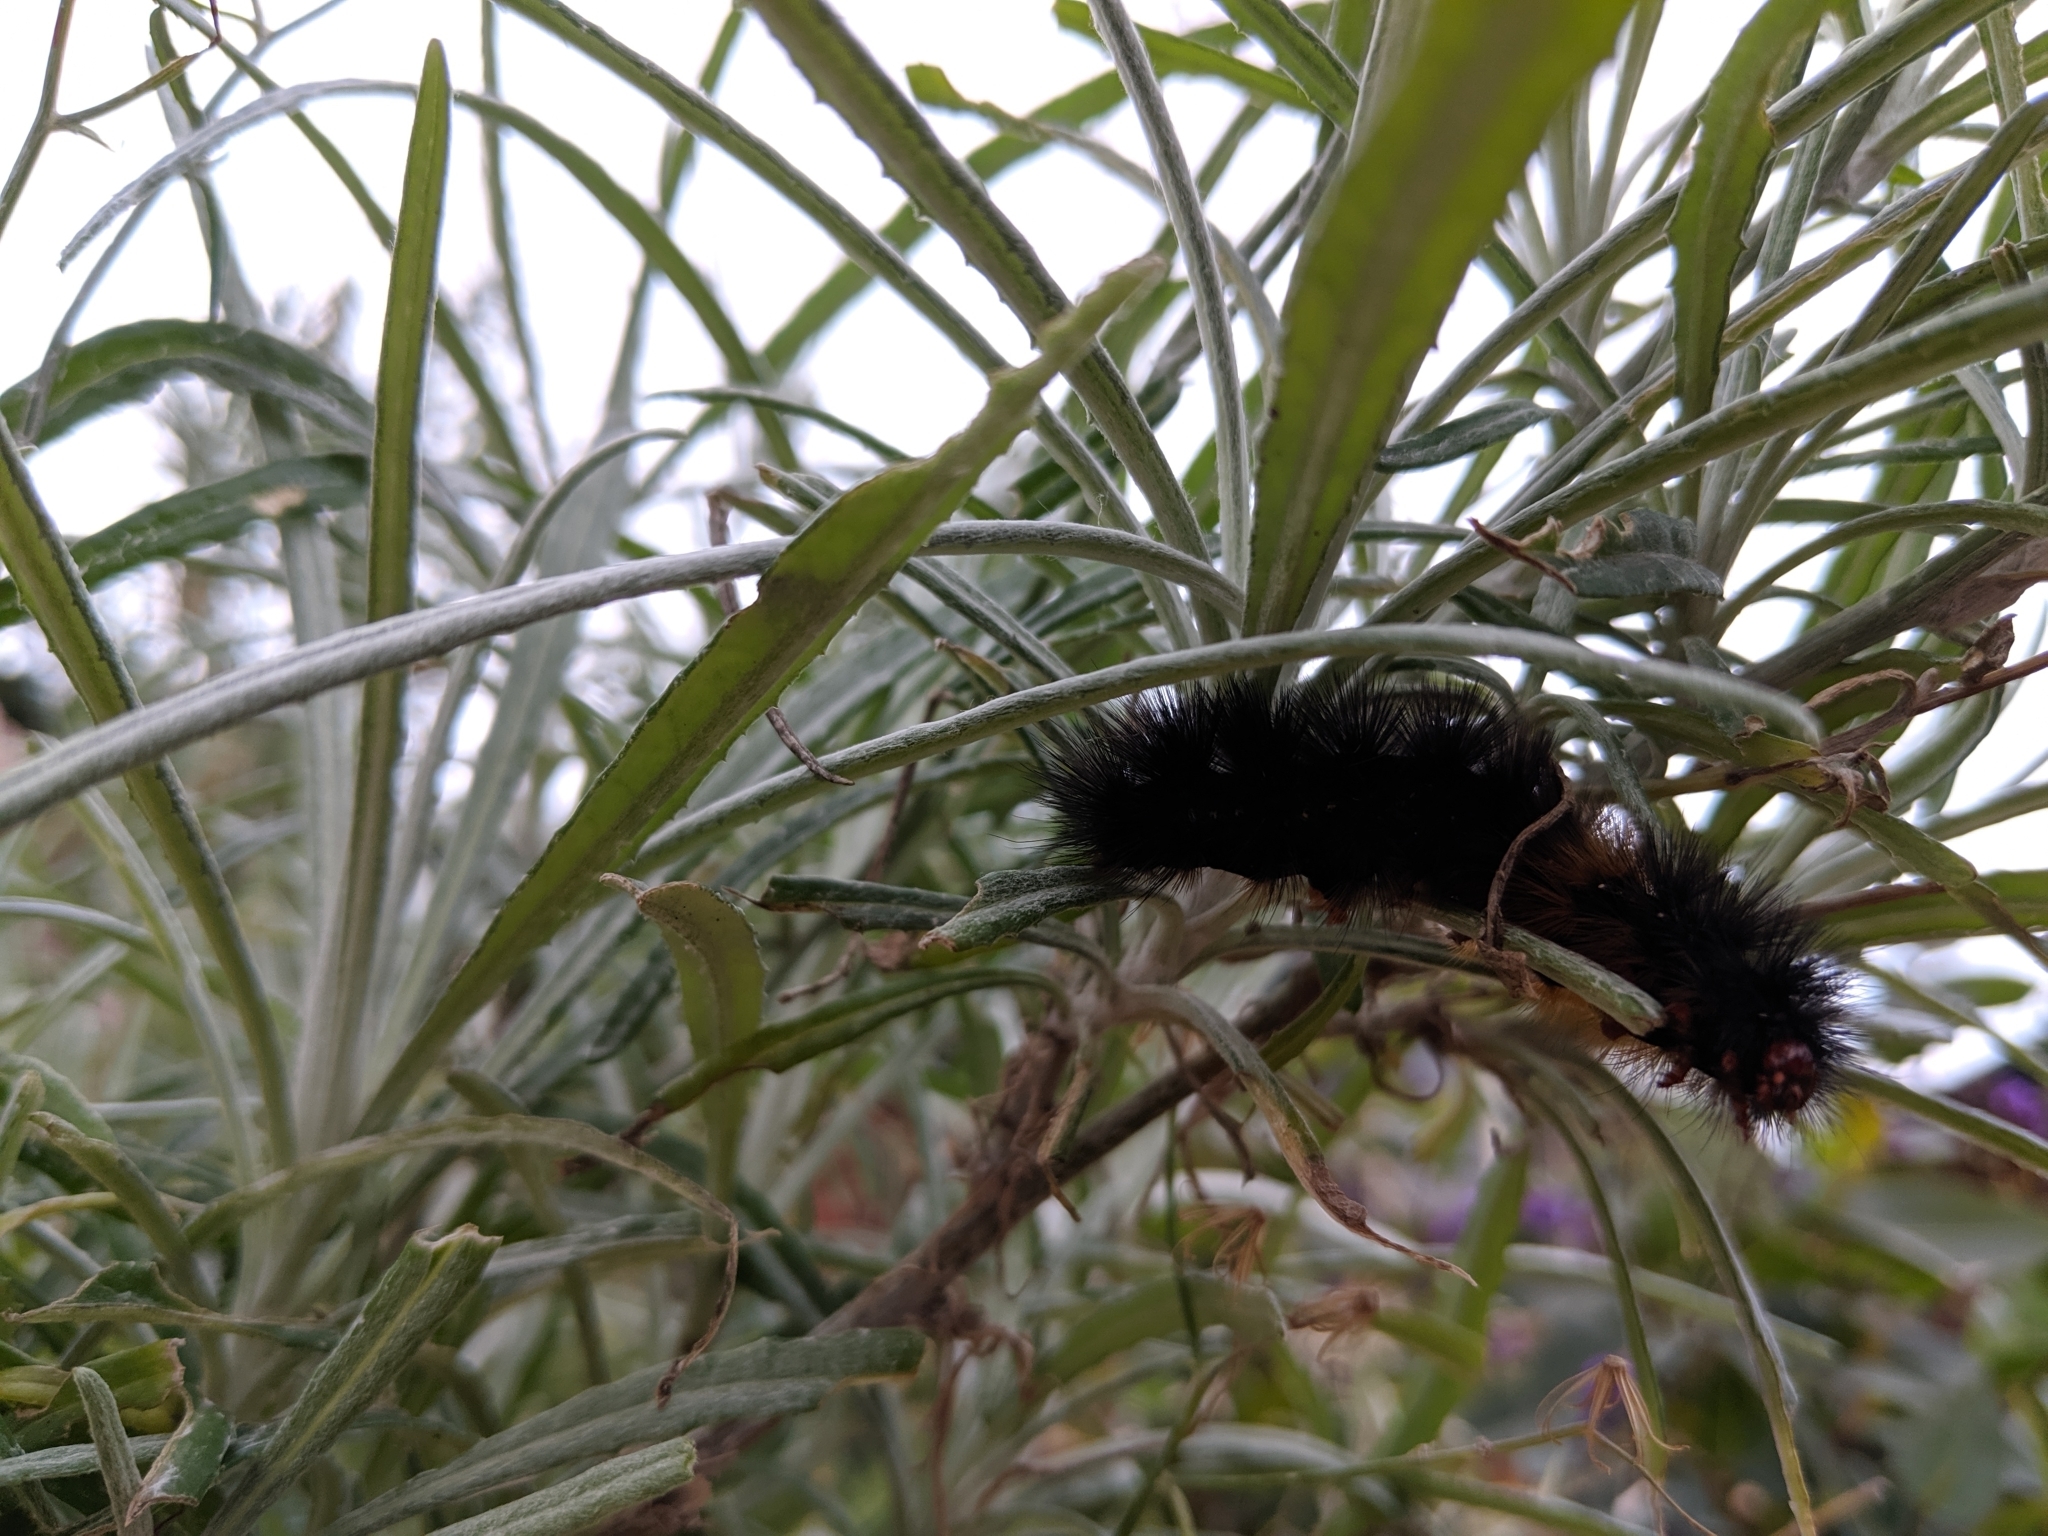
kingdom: Animalia
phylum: Arthropoda
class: Insecta
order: Lepidoptera
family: Erebidae
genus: Ardices
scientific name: Ardices glatignyi
